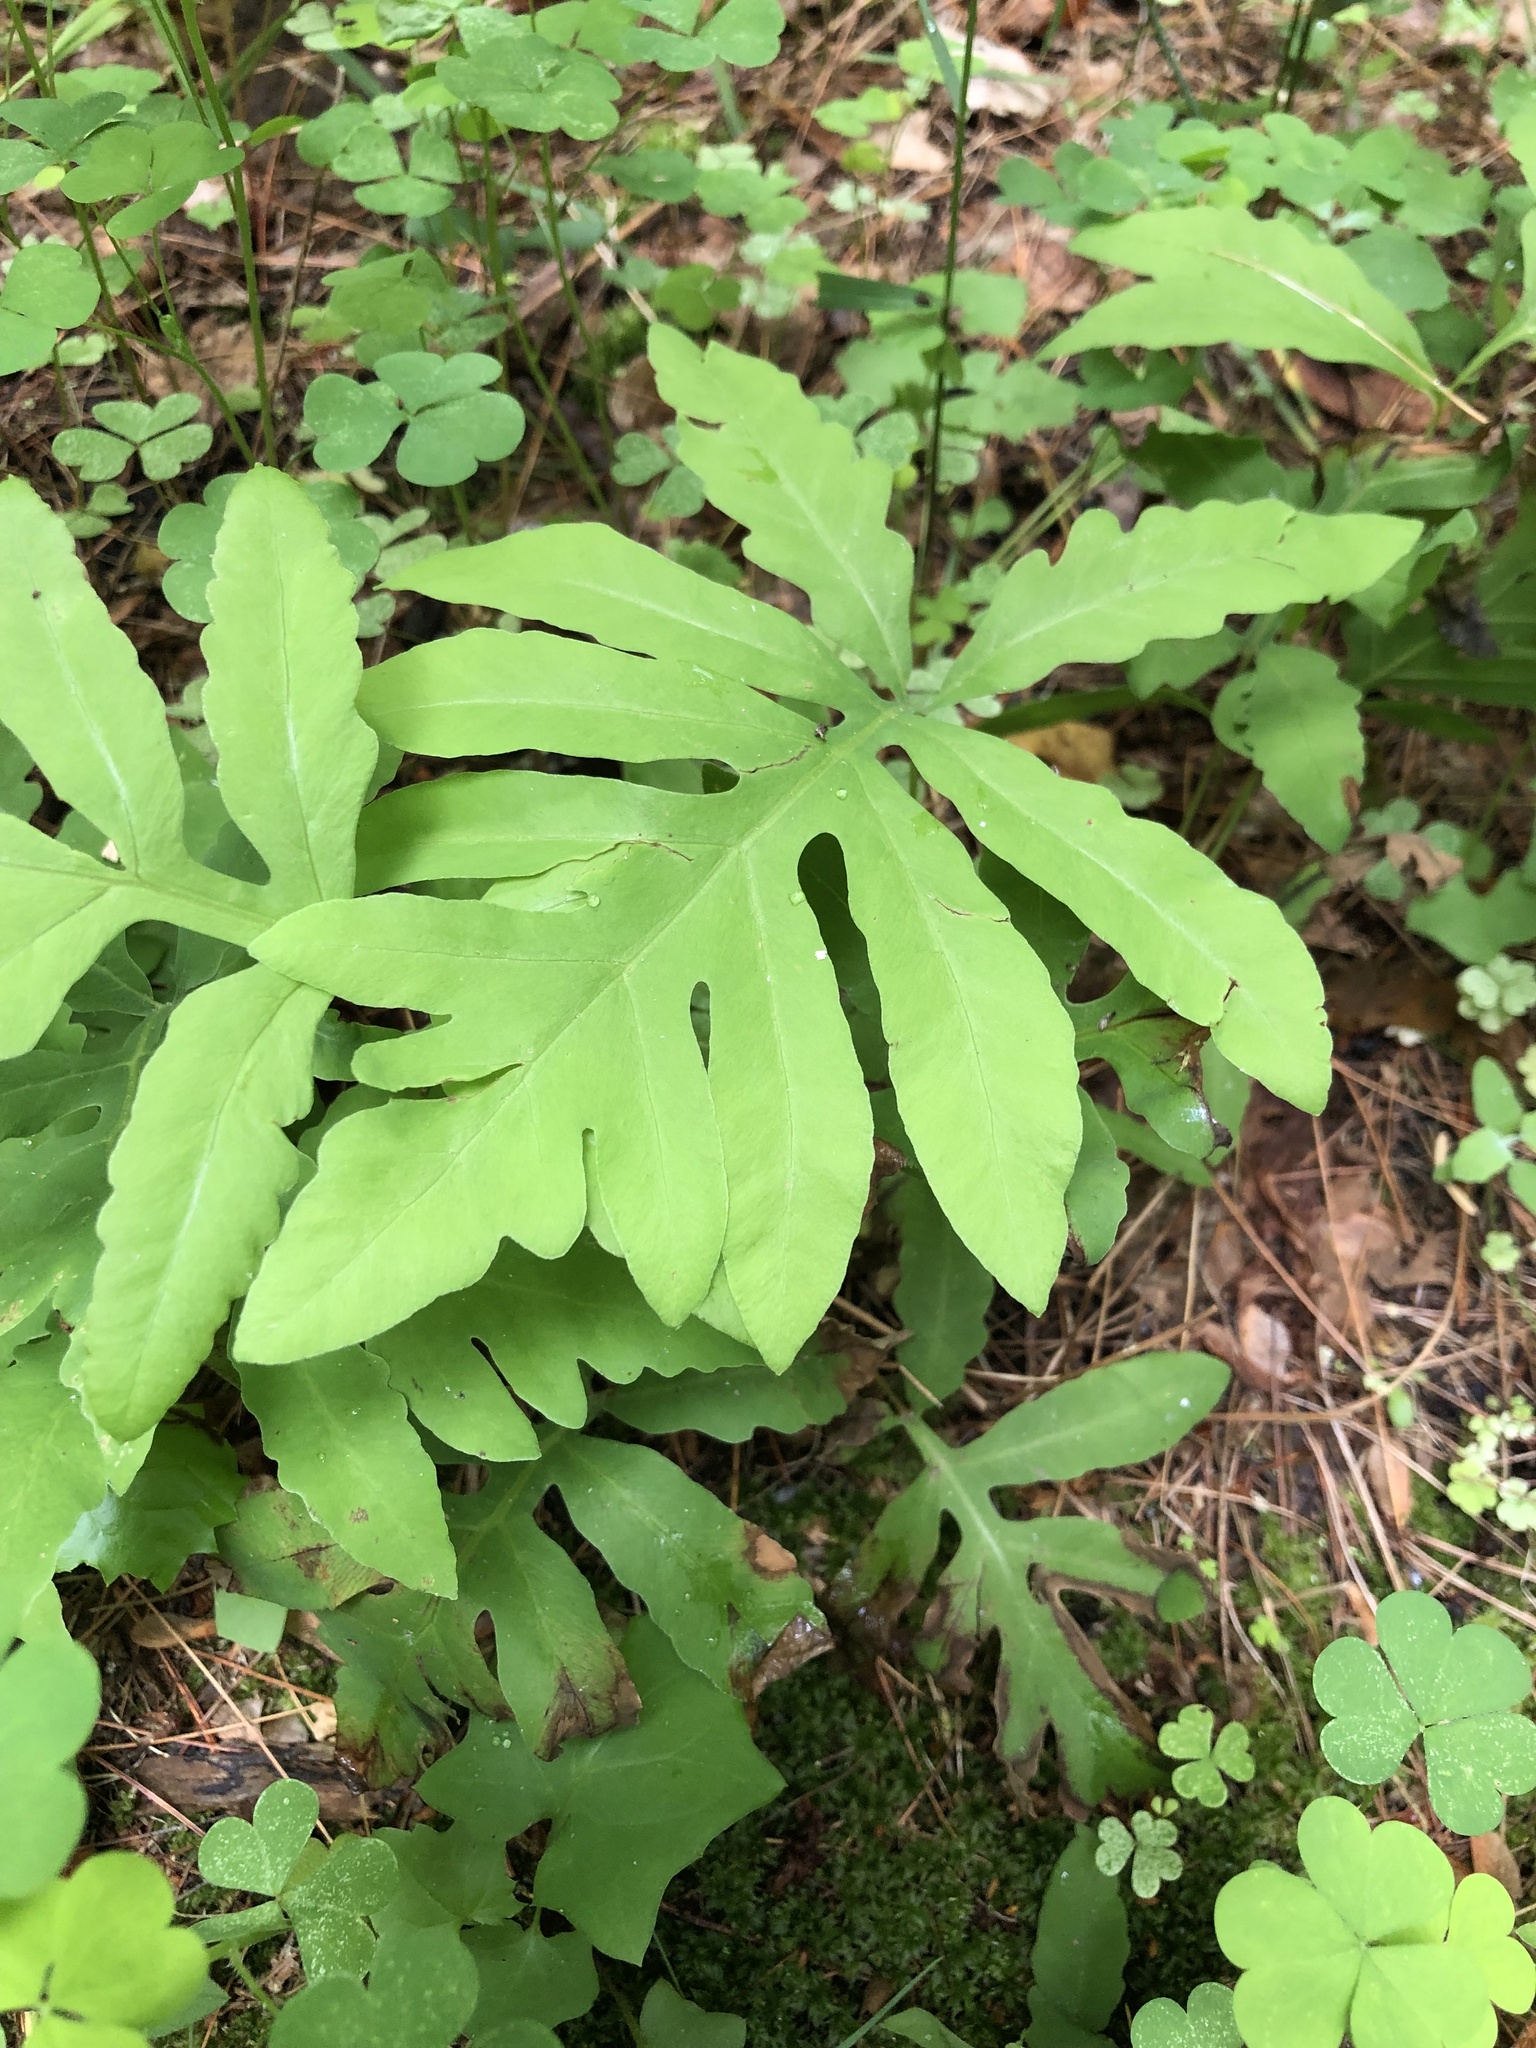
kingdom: Plantae
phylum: Tracheophyta
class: Polypodiopsida
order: Polypodiales
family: Onocleaceae
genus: Onoclea
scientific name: Onoclea sensibilis
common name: Sensitive fern
